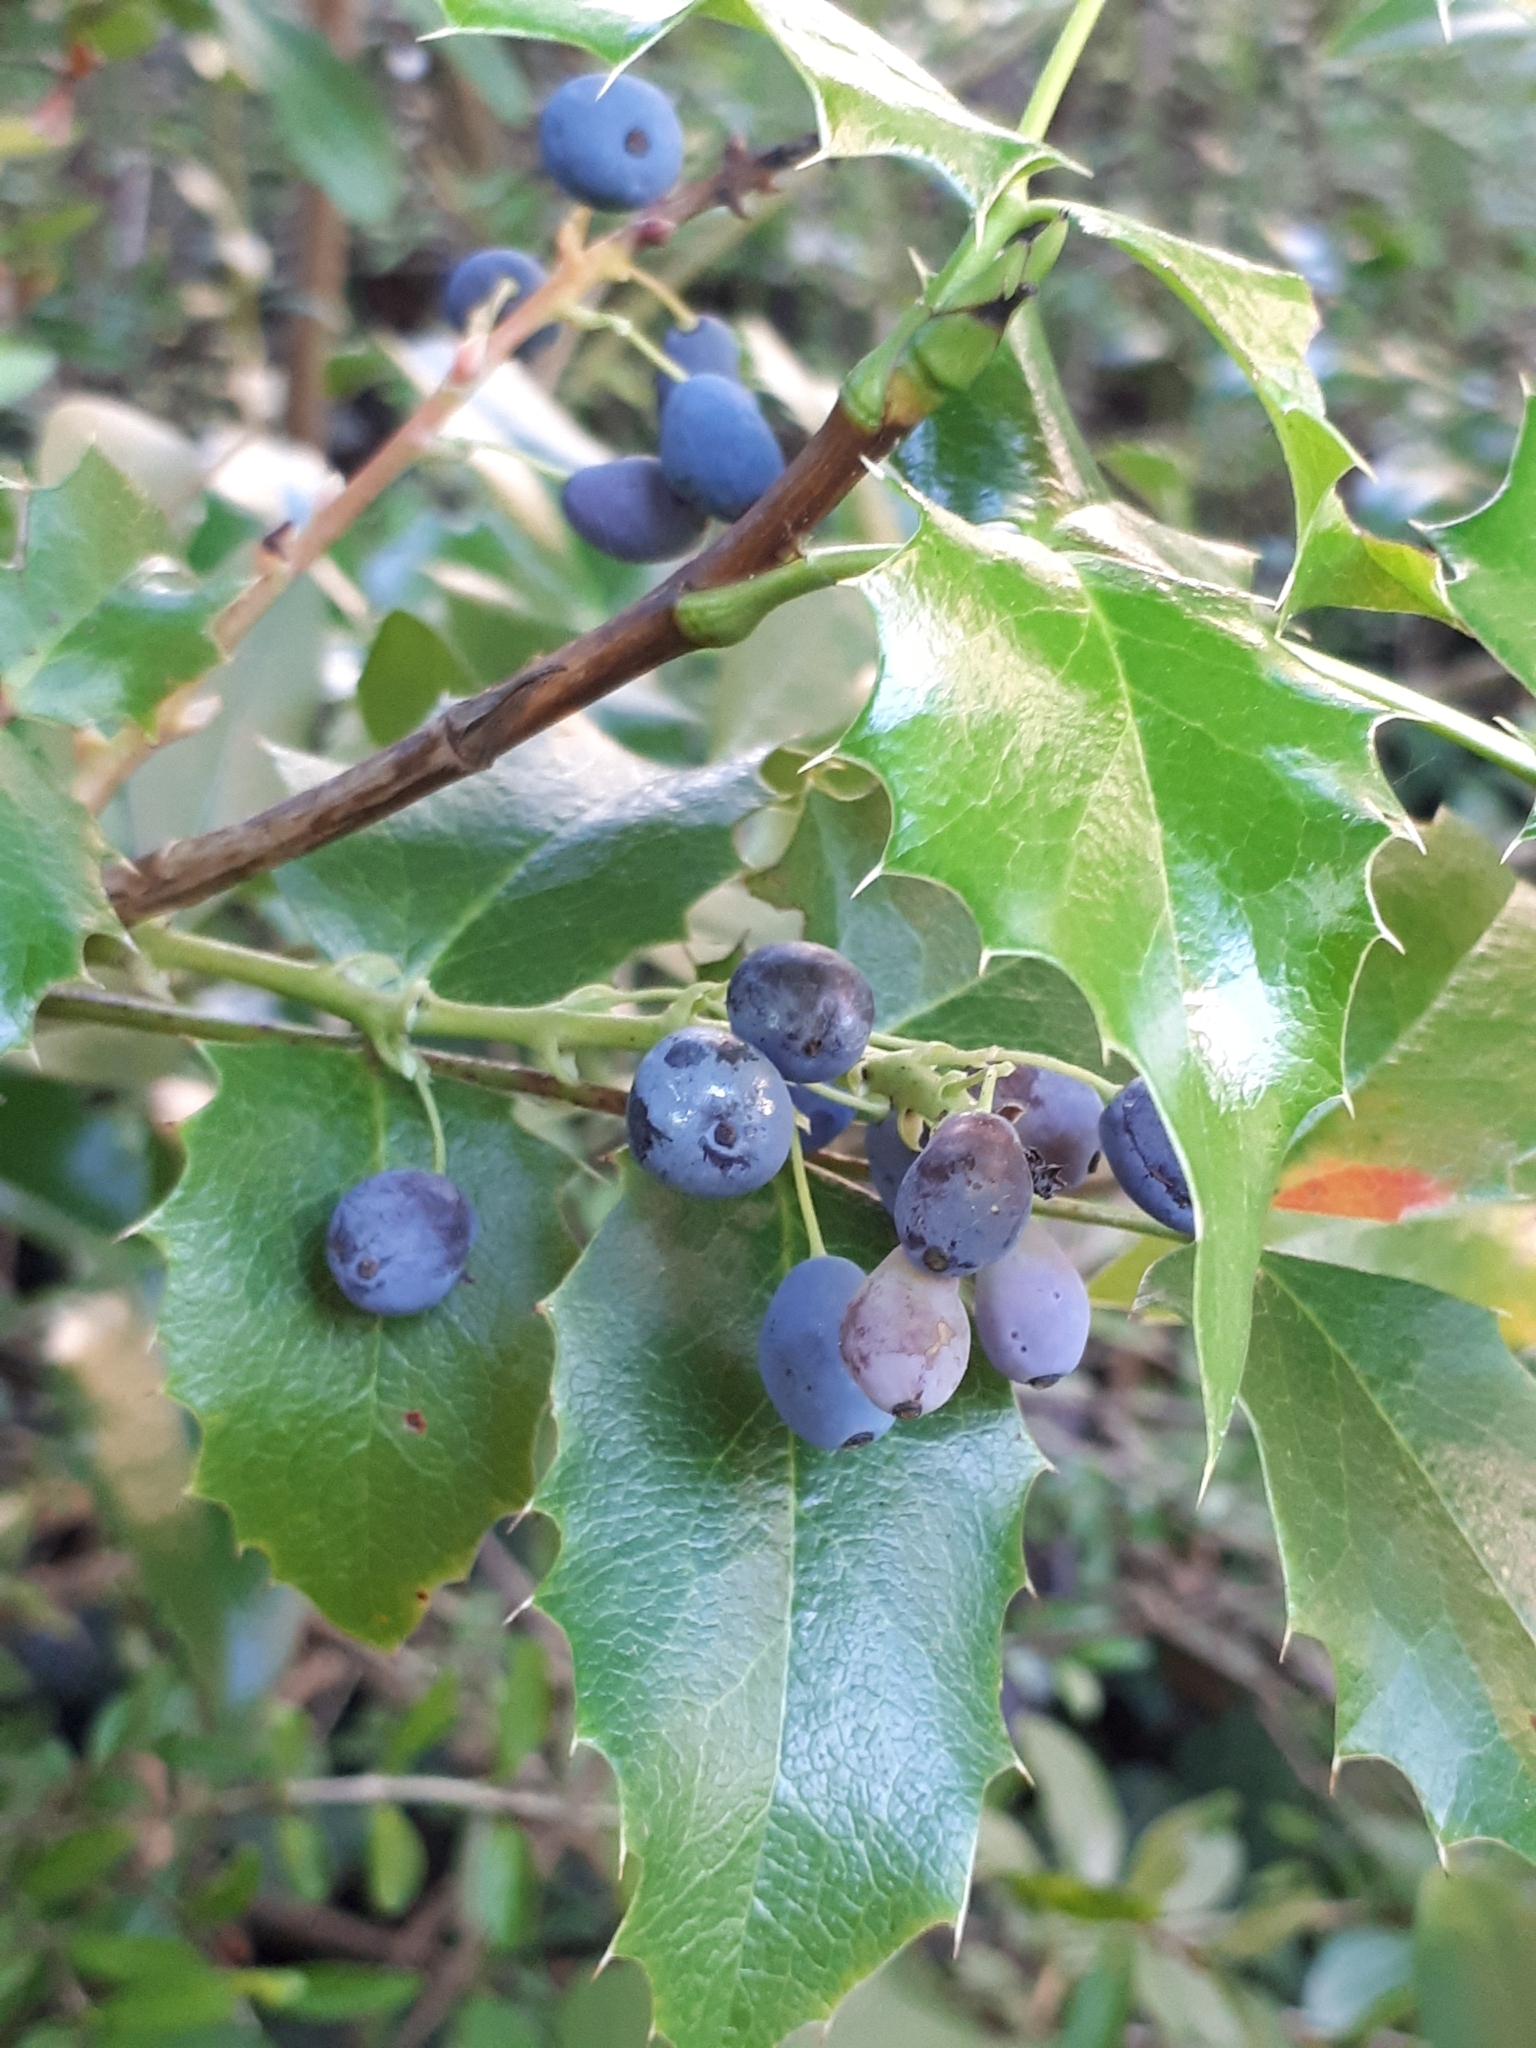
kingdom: Plantae
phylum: Tracheophyta
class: Magnoliopsida
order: Ranunculales
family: Berberidaceae
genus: Mahonia
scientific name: Mahonia aquifolium
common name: Oregon-grape
